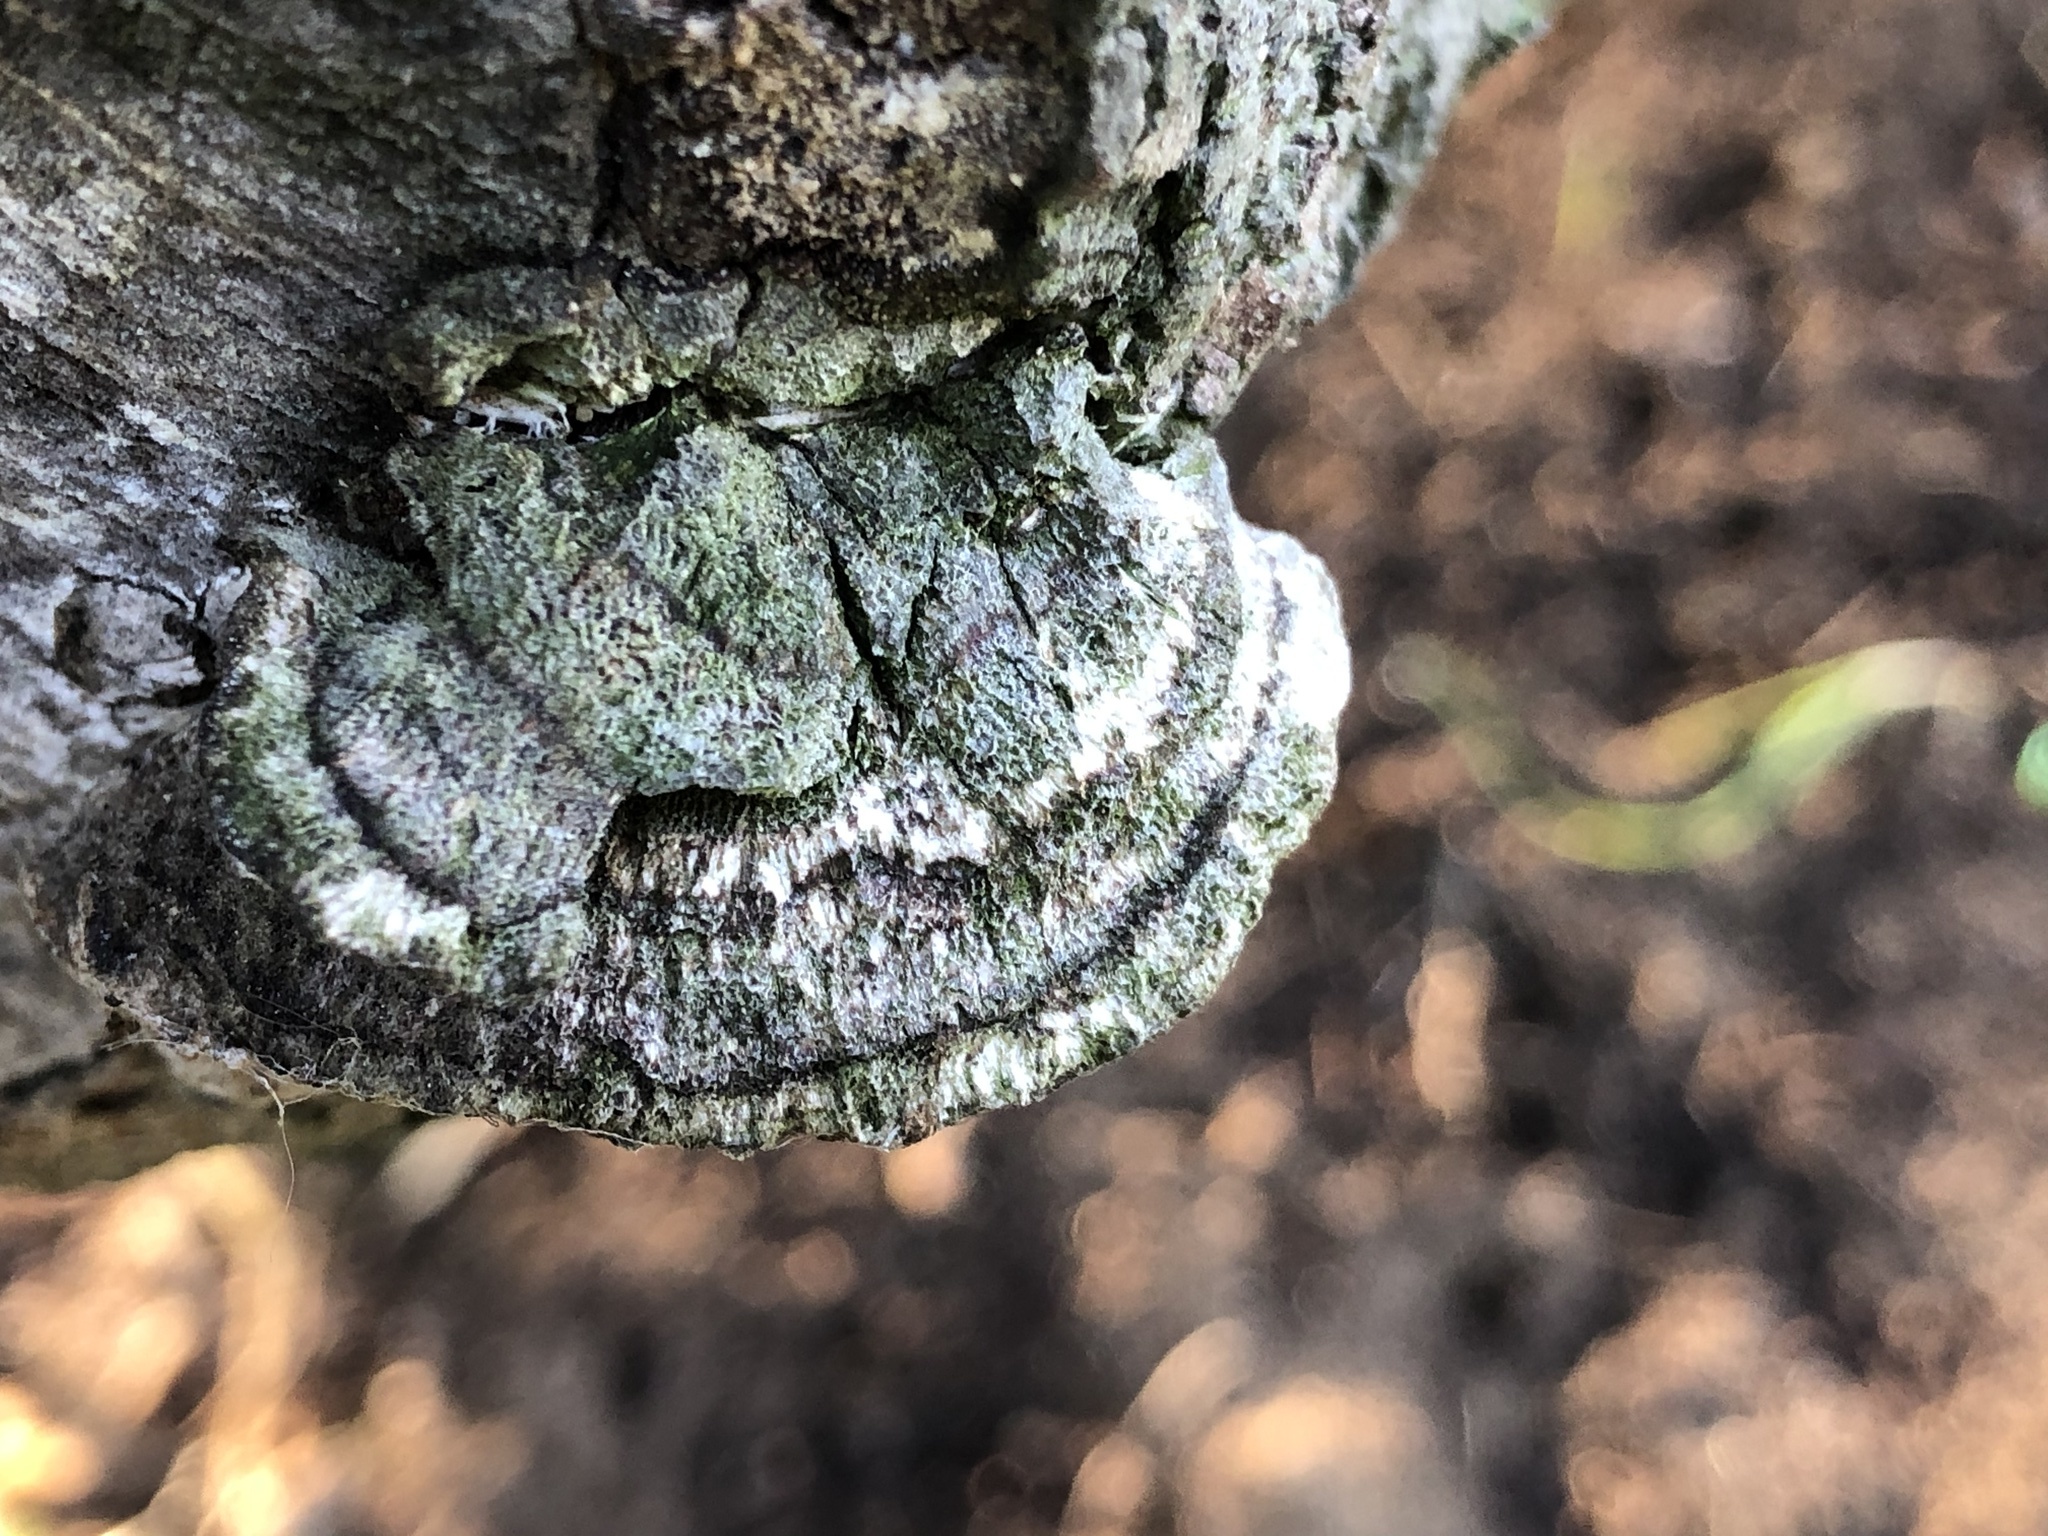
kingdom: Fungi
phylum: Basidiomycota
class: Agaricomycetes
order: Polyporales
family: Polyporaceae
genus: Trametes
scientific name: Trametes hirsuta
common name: Hairy bracket
